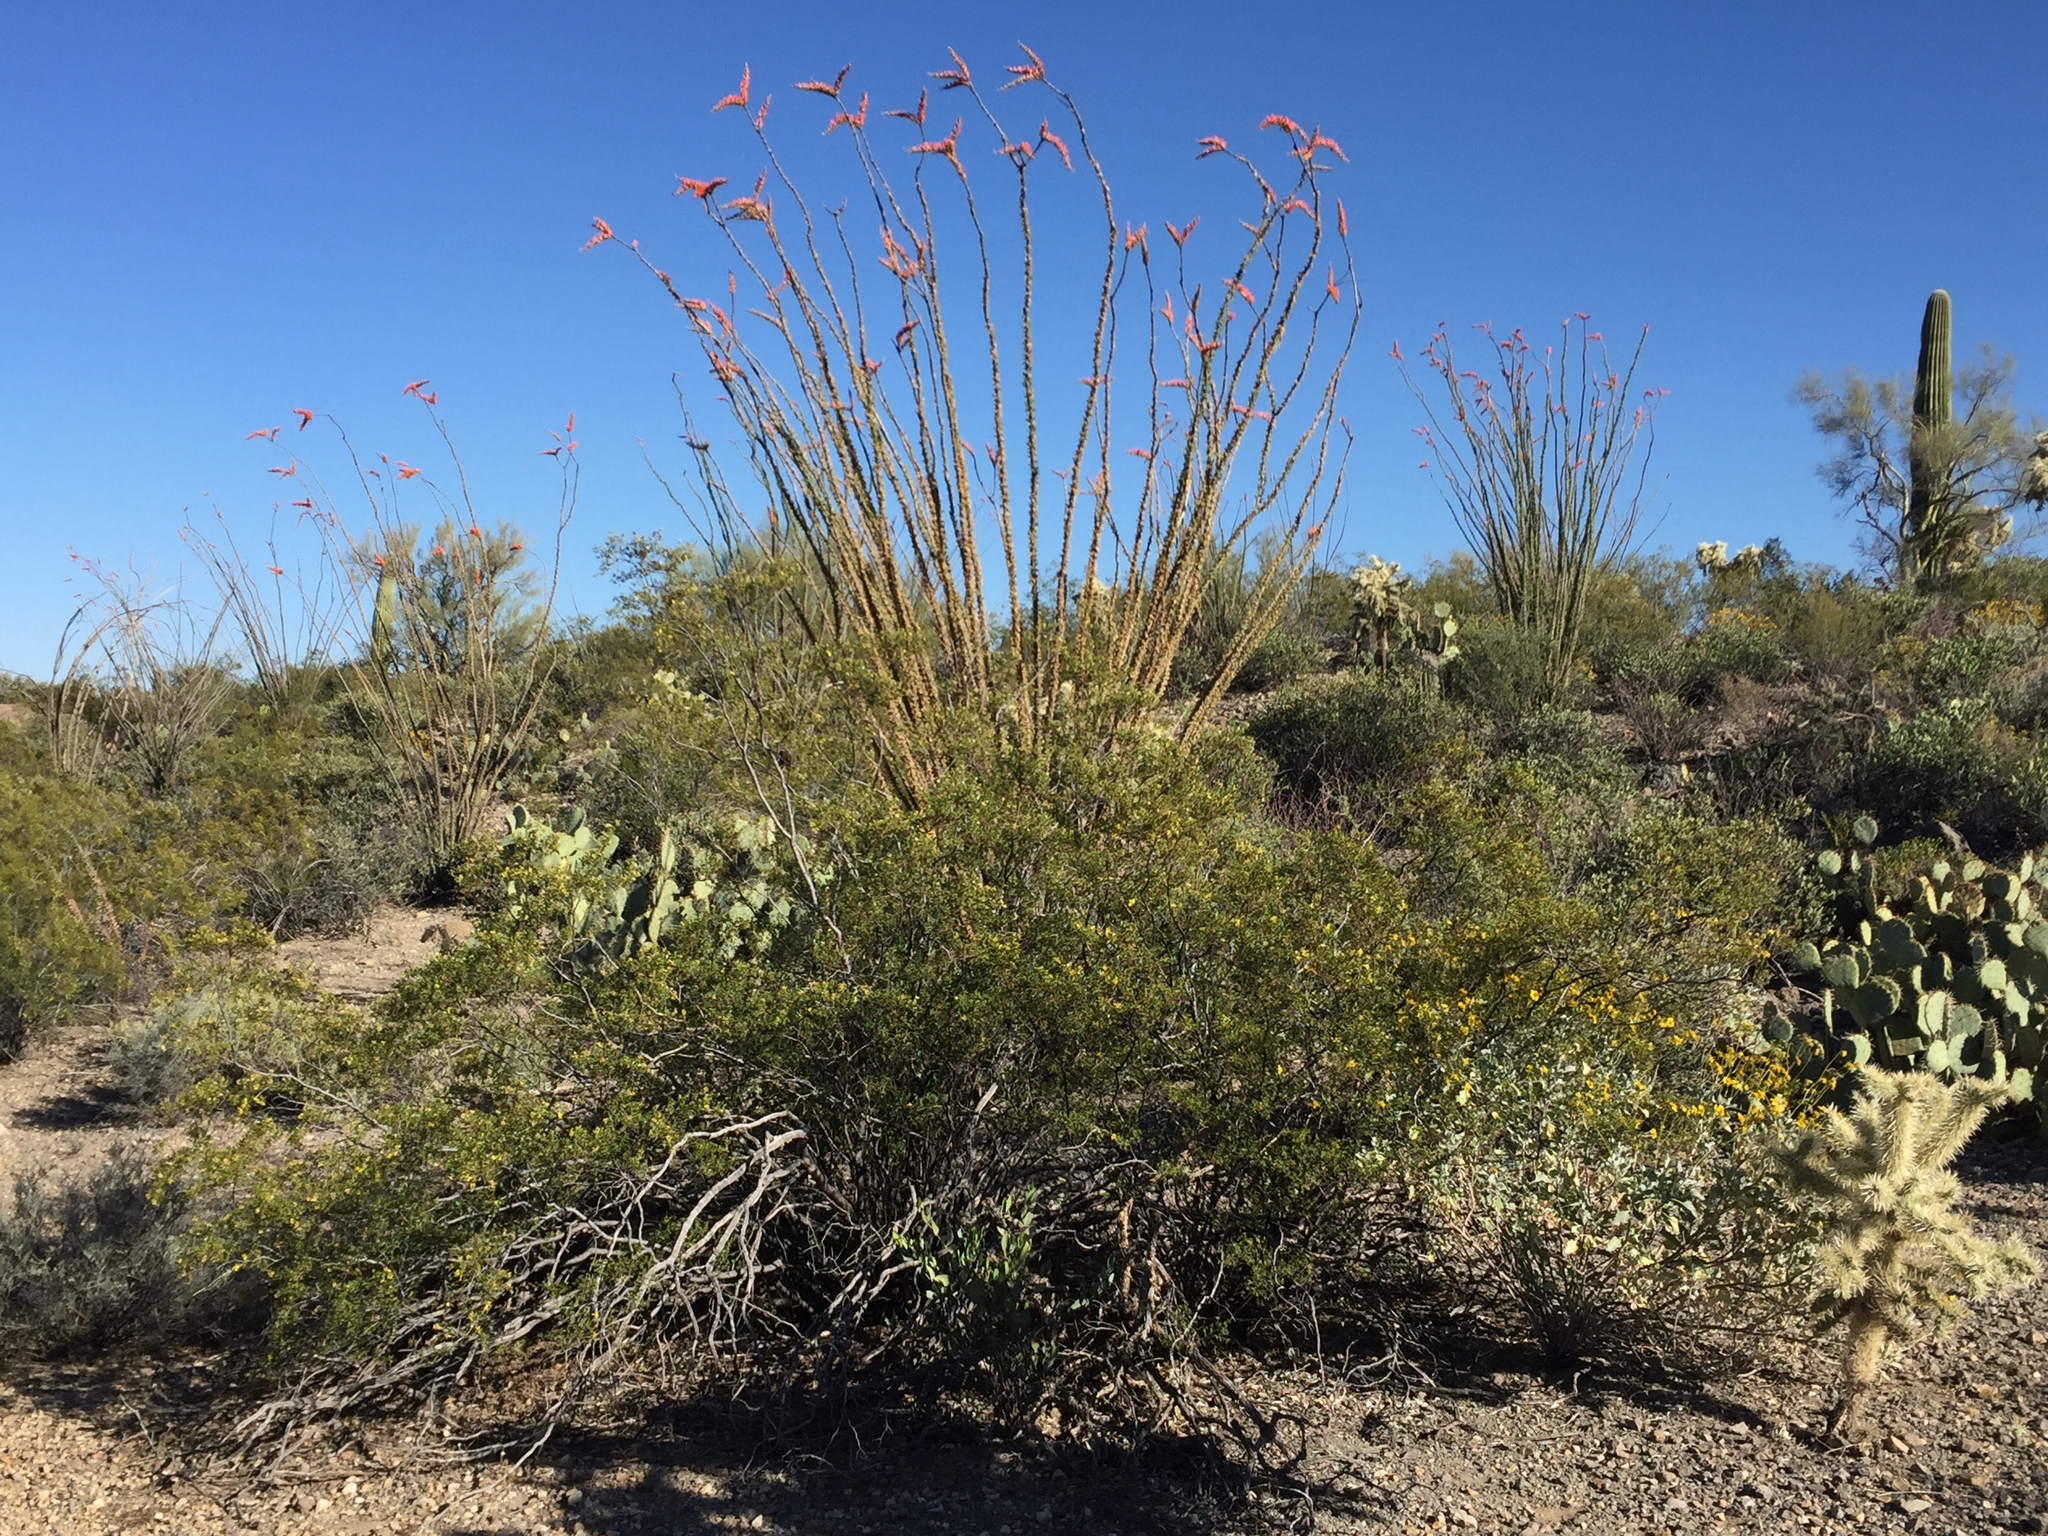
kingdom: Plantae
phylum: Tracheophyta
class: Magnoliopsida
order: Ericales
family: Fouquieriaceae
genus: Fouquieria
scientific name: Fouquieria splendens
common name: Vine-cactus
